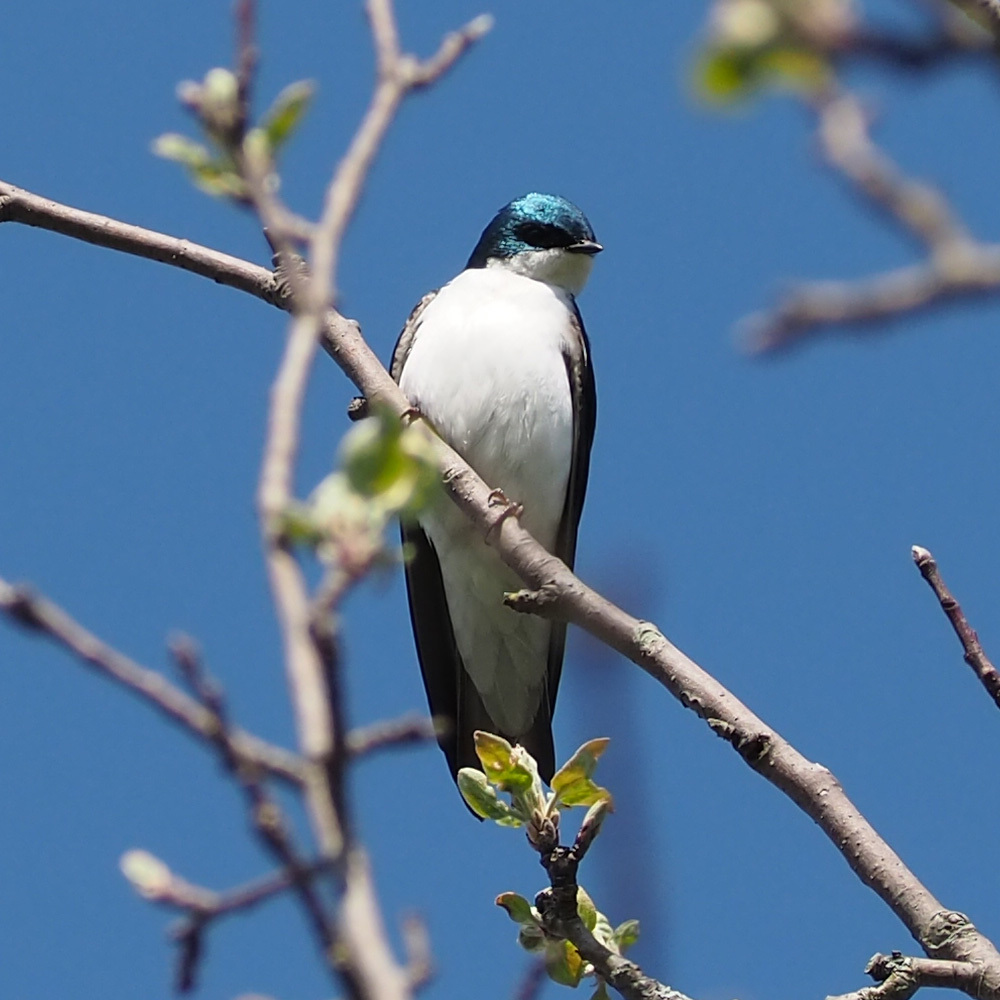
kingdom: Animalia
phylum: Chordata
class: Aves
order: Passeriformes
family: Hirundinidae
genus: Tachycineta
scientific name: Tachycineta bicolor
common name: Tree swallow
